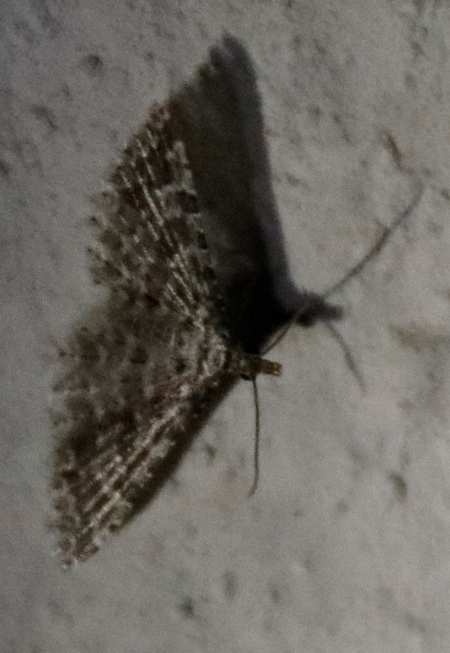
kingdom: Animalia
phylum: Arthropoda
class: Insecta
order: Lepidoptera
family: Alucitidae
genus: Alucita
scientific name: Alucita spicifera
